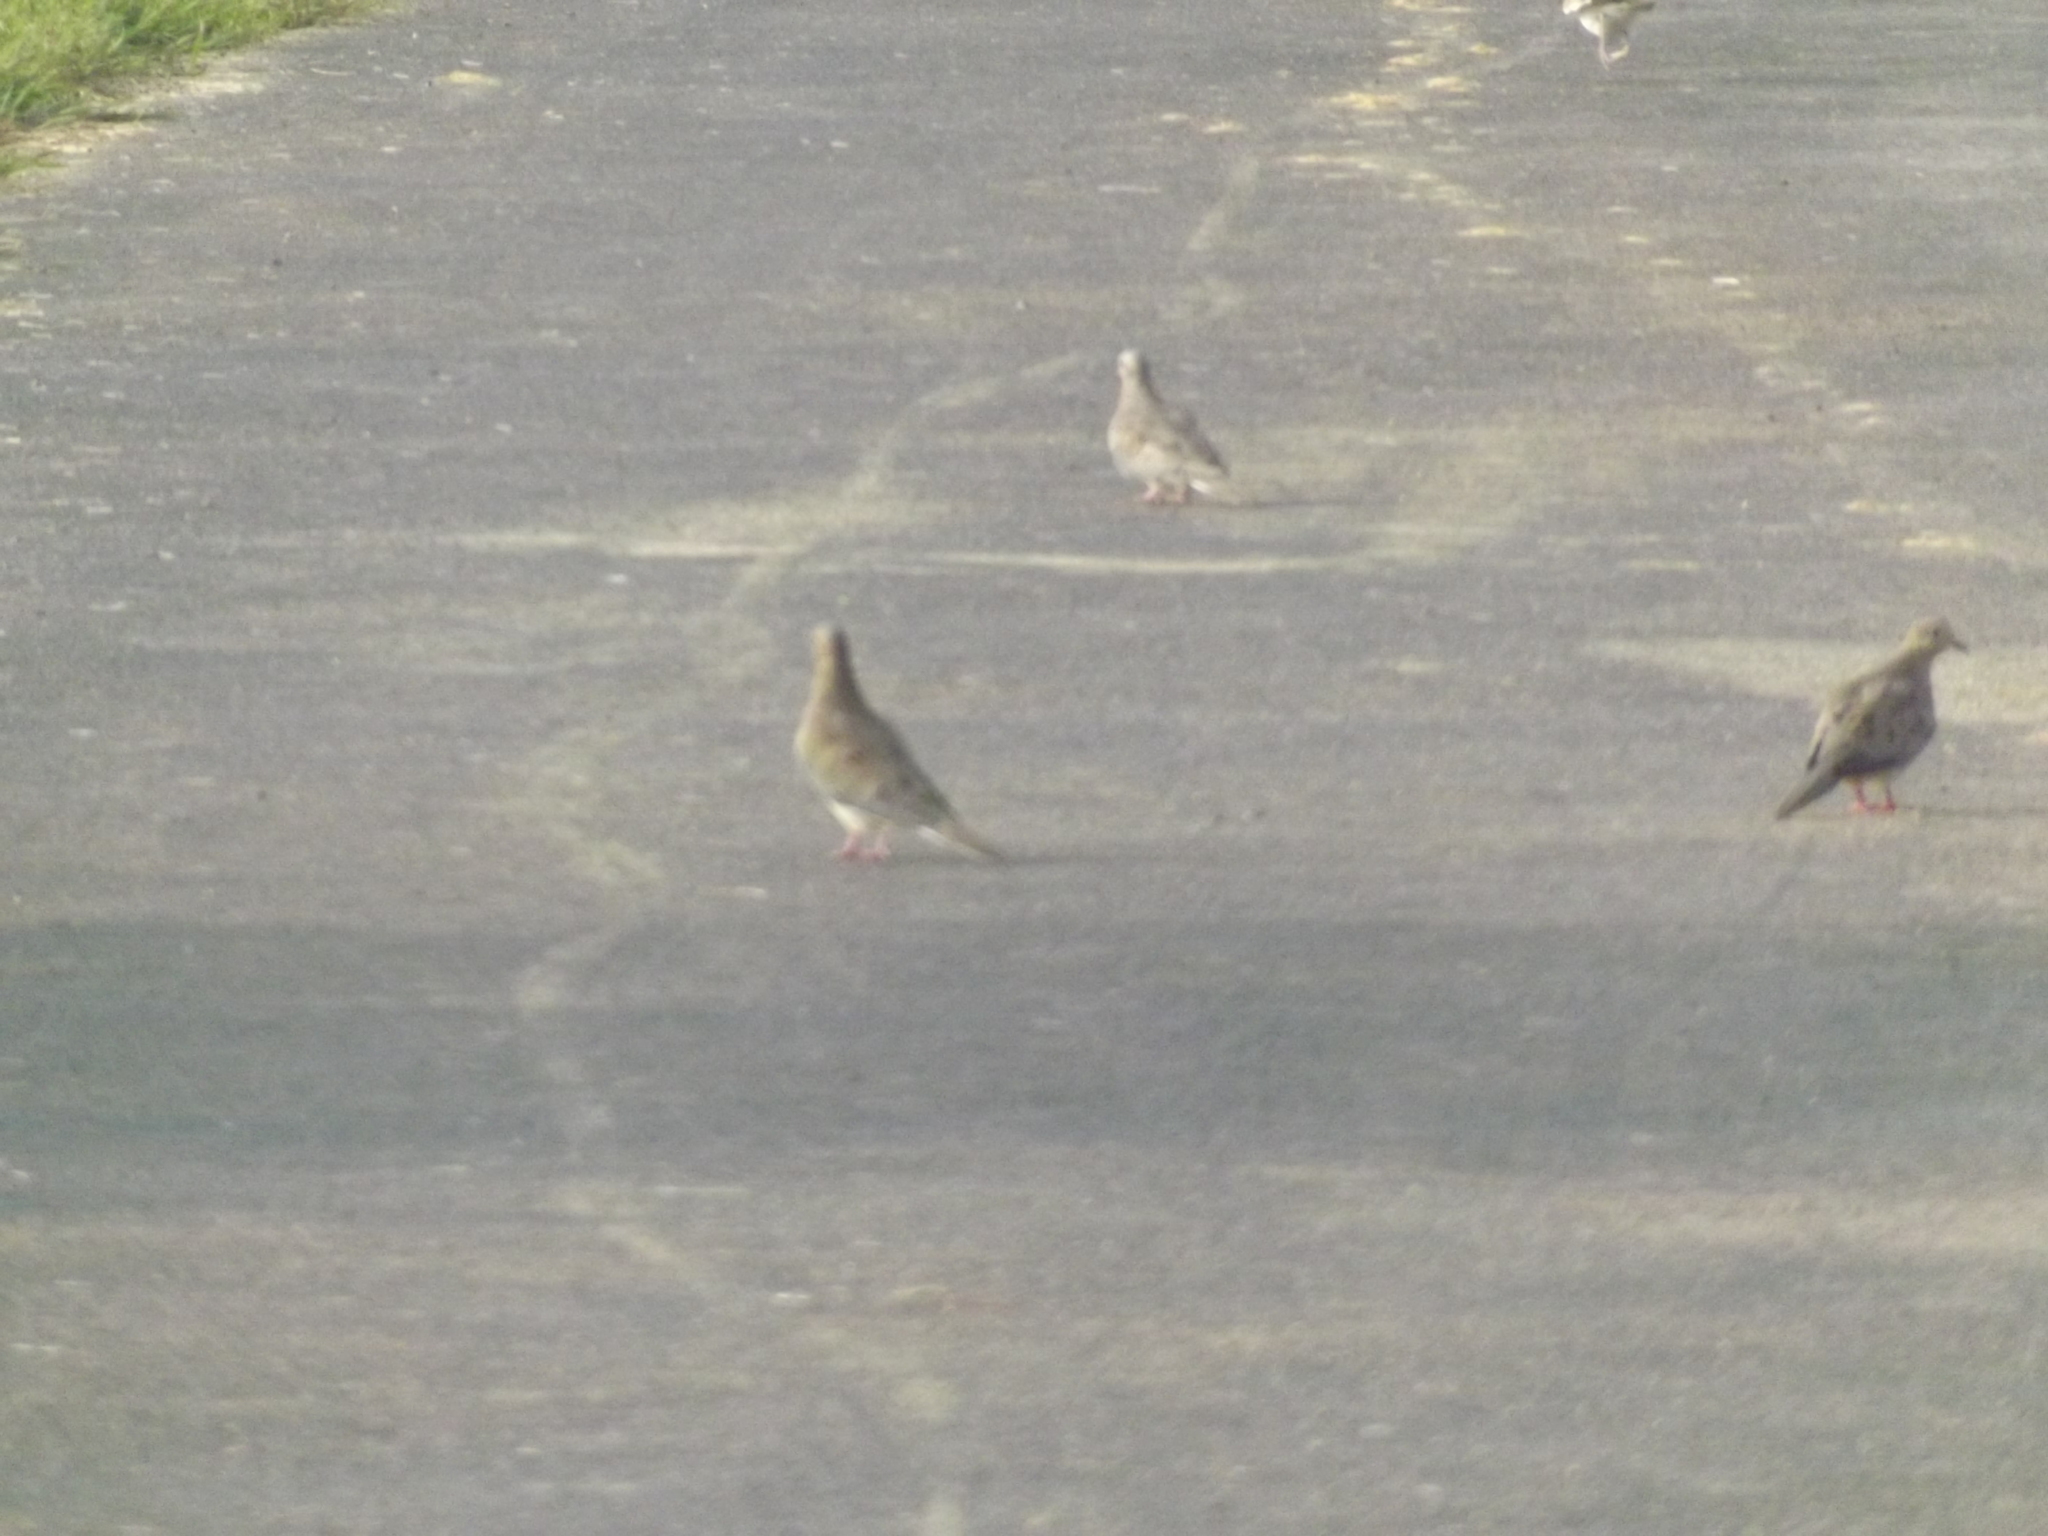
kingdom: Animalia
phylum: Chordata
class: Aves
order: Columbiformes
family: Columbidae
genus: Zenaida
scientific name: Zenaida macroura
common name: Mourning dove
